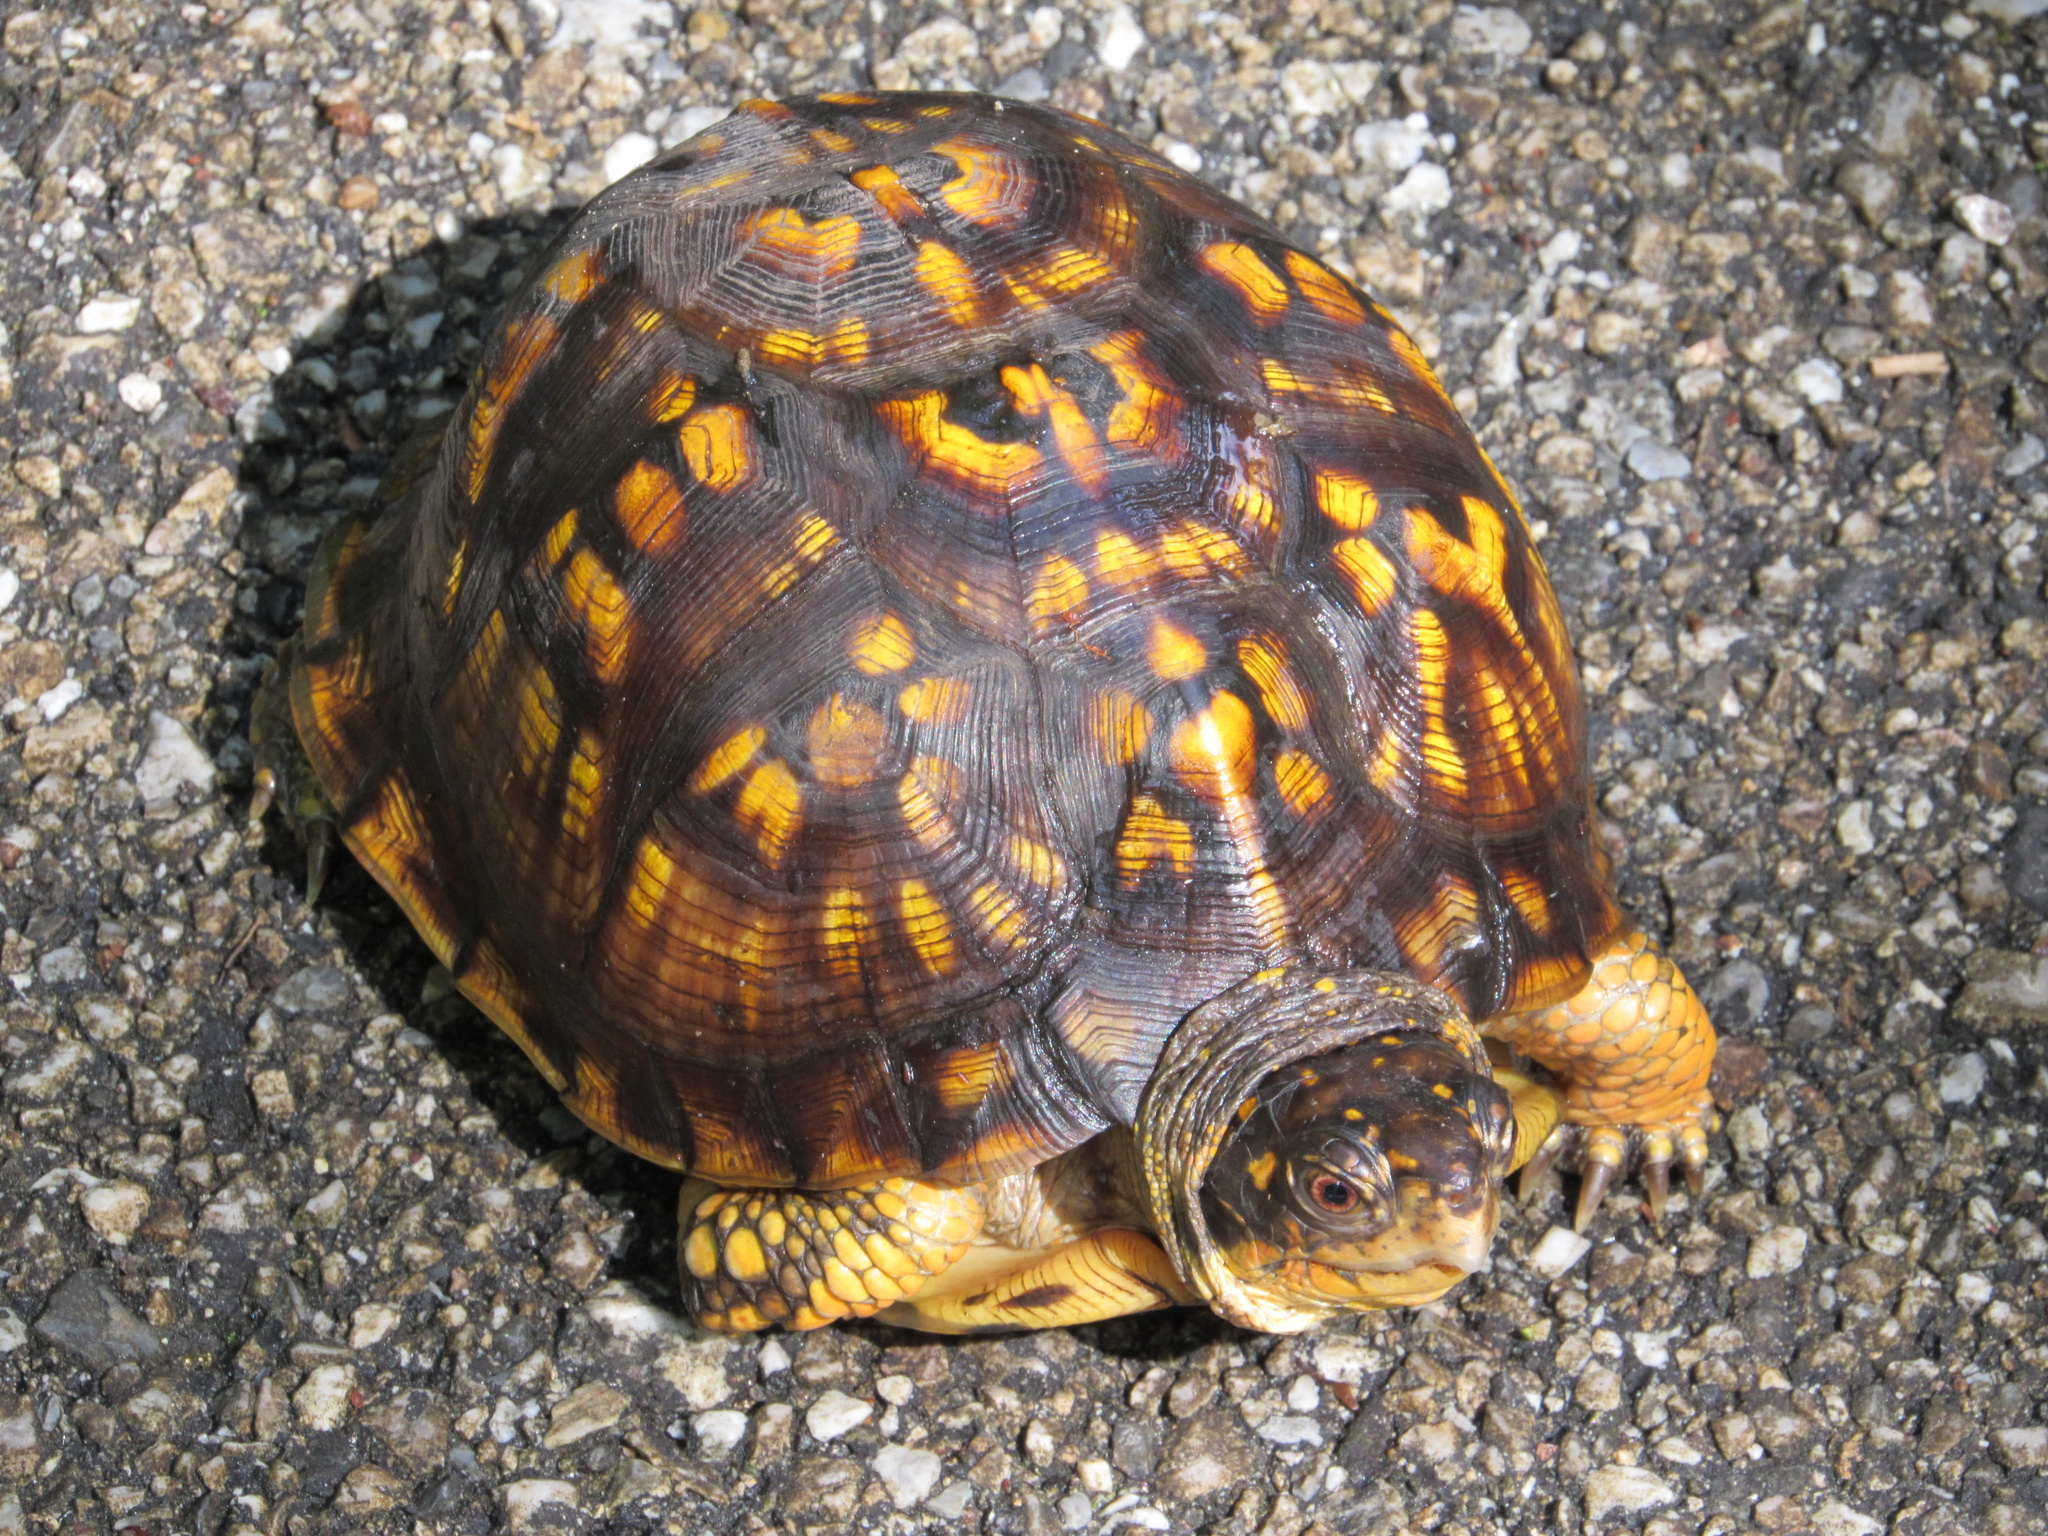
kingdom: Animalia
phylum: Chordata
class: Testudines
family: Emydidae
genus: Terrapene
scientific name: Terrapene carolina
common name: Common box turtle
